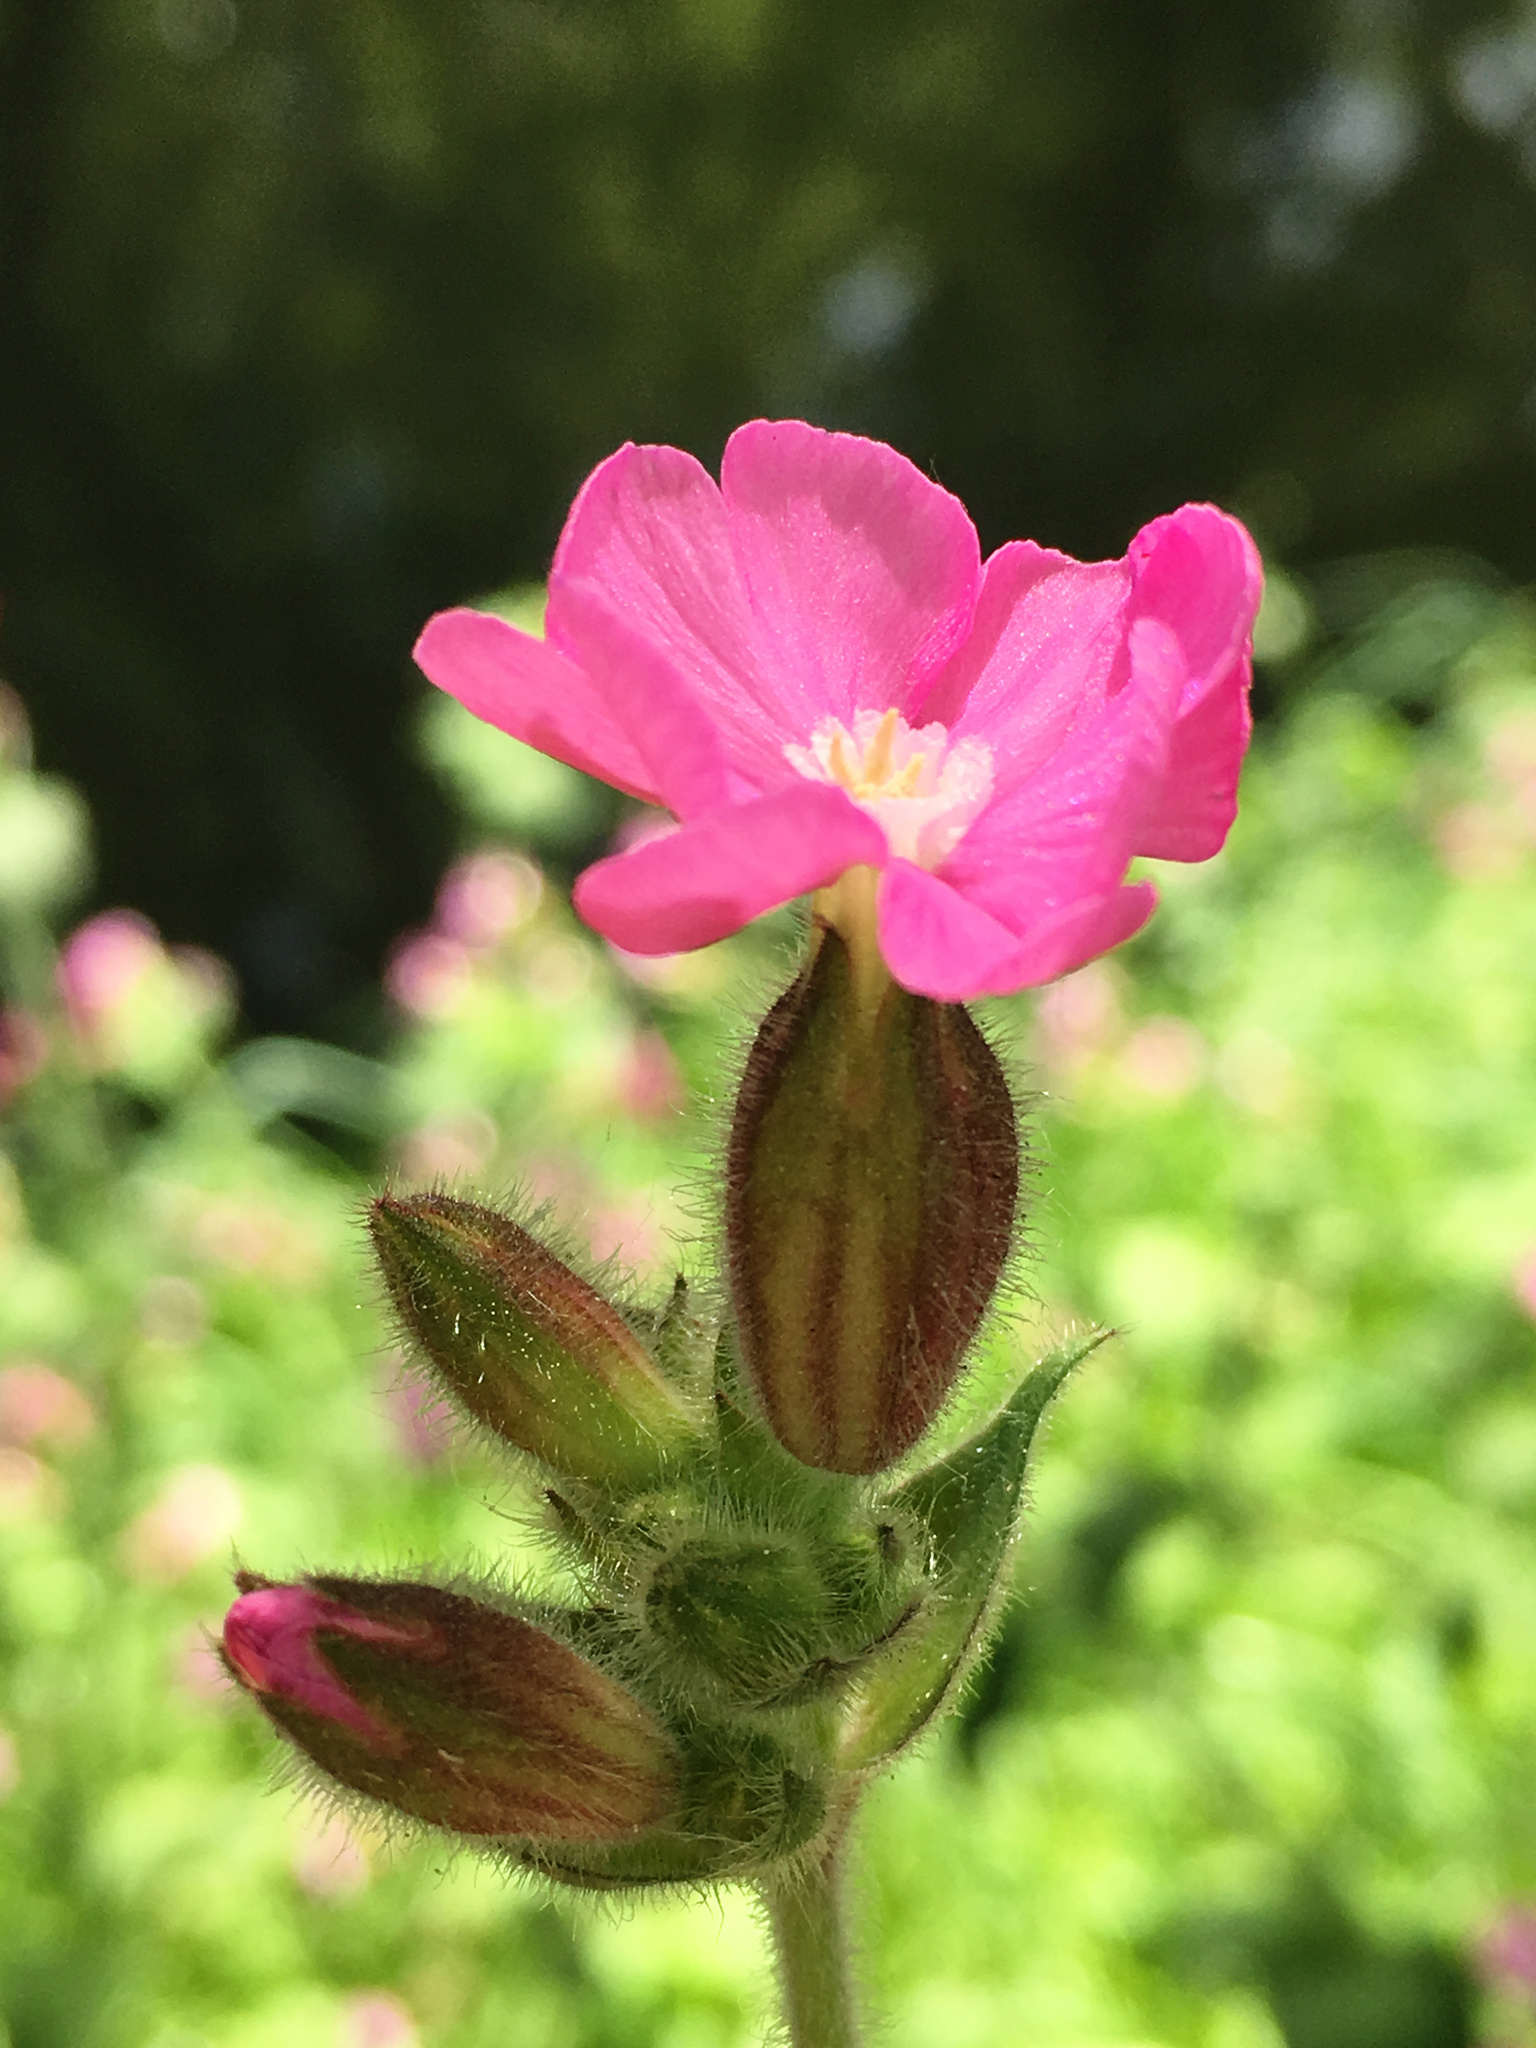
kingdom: Plantae
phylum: Tracheophyta
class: Magnoliopsida
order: Caryophyllales
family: Caryophyllaceae
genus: Silene
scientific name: Silene dioica
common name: Red campion
